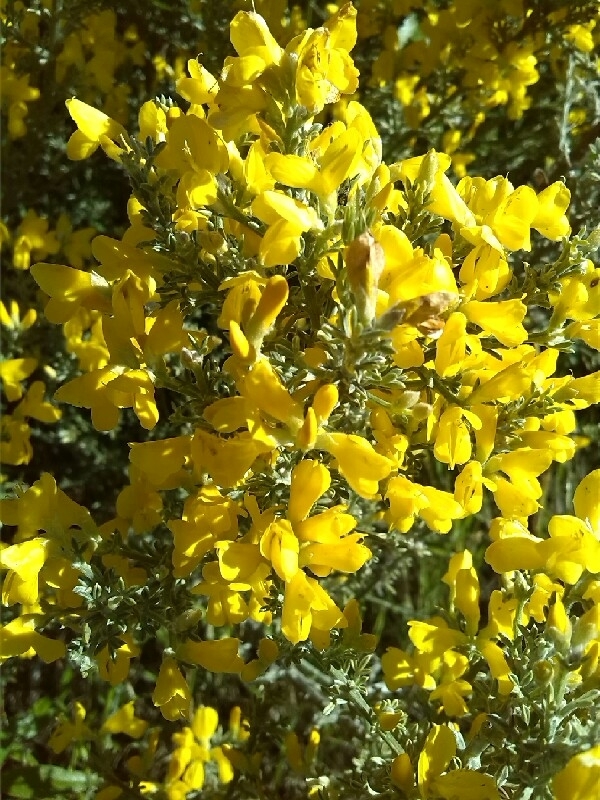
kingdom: Plantae
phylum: Tracheophyta
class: Magnoliopsida
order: Fabales
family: Fabaceae
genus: Genista
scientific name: Genista microphylla
